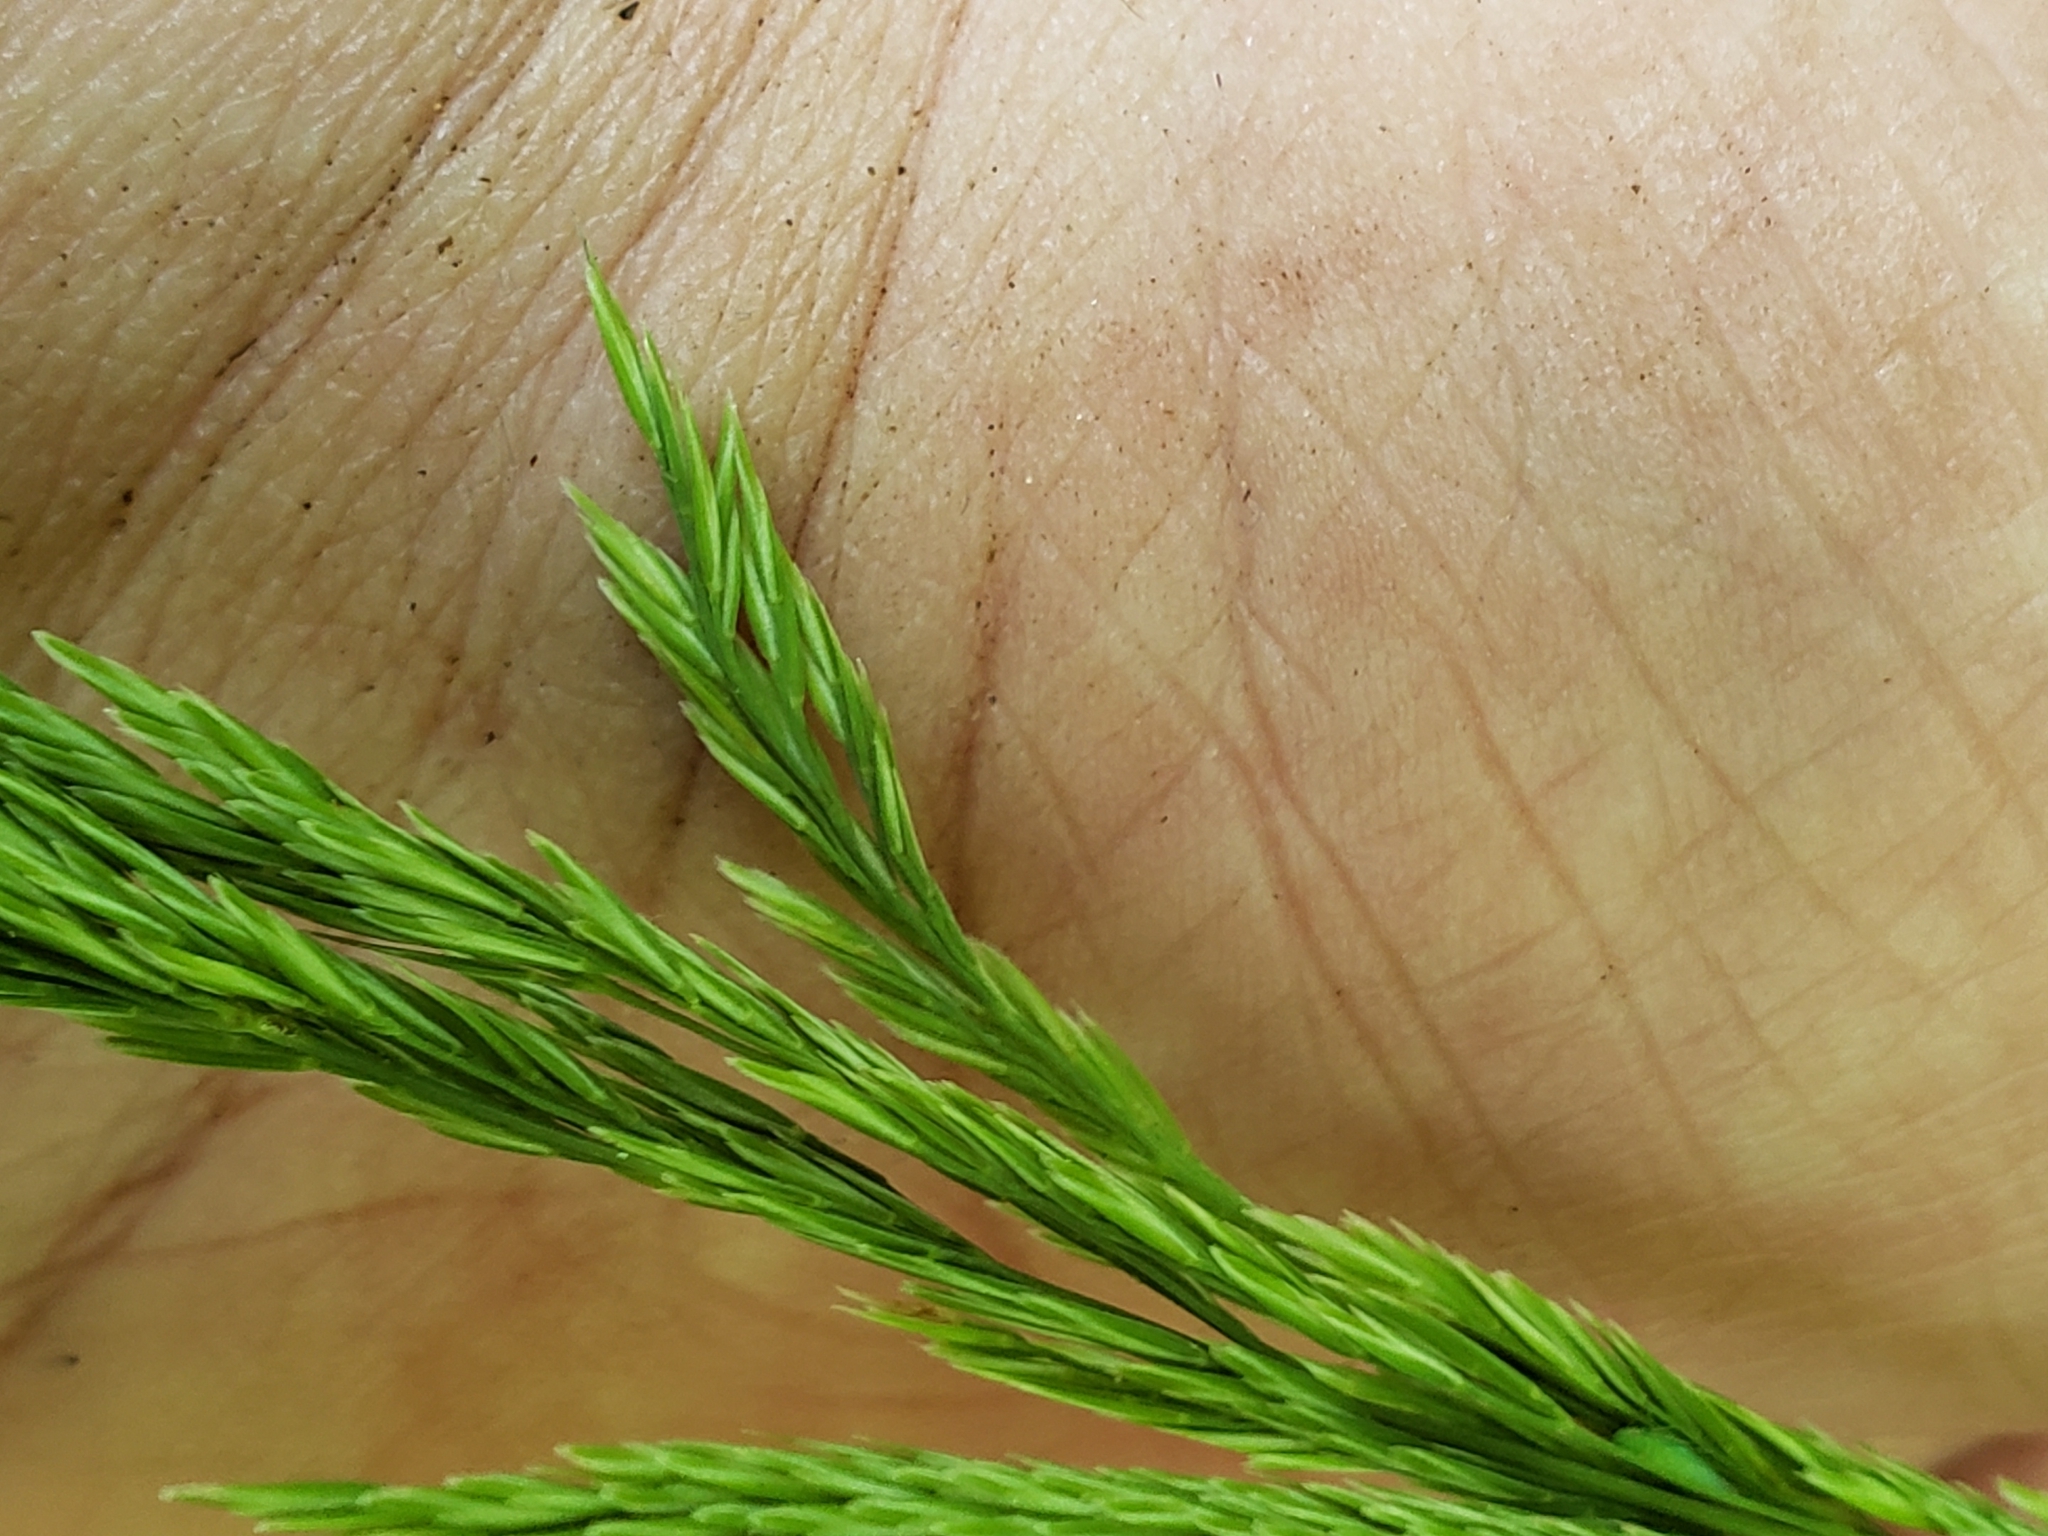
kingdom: Plantae
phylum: Tracheophyta
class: Liliopsida
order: Poales
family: Poaceae
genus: Cinna
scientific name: Cinna arundinacea
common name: Stout woodreed
